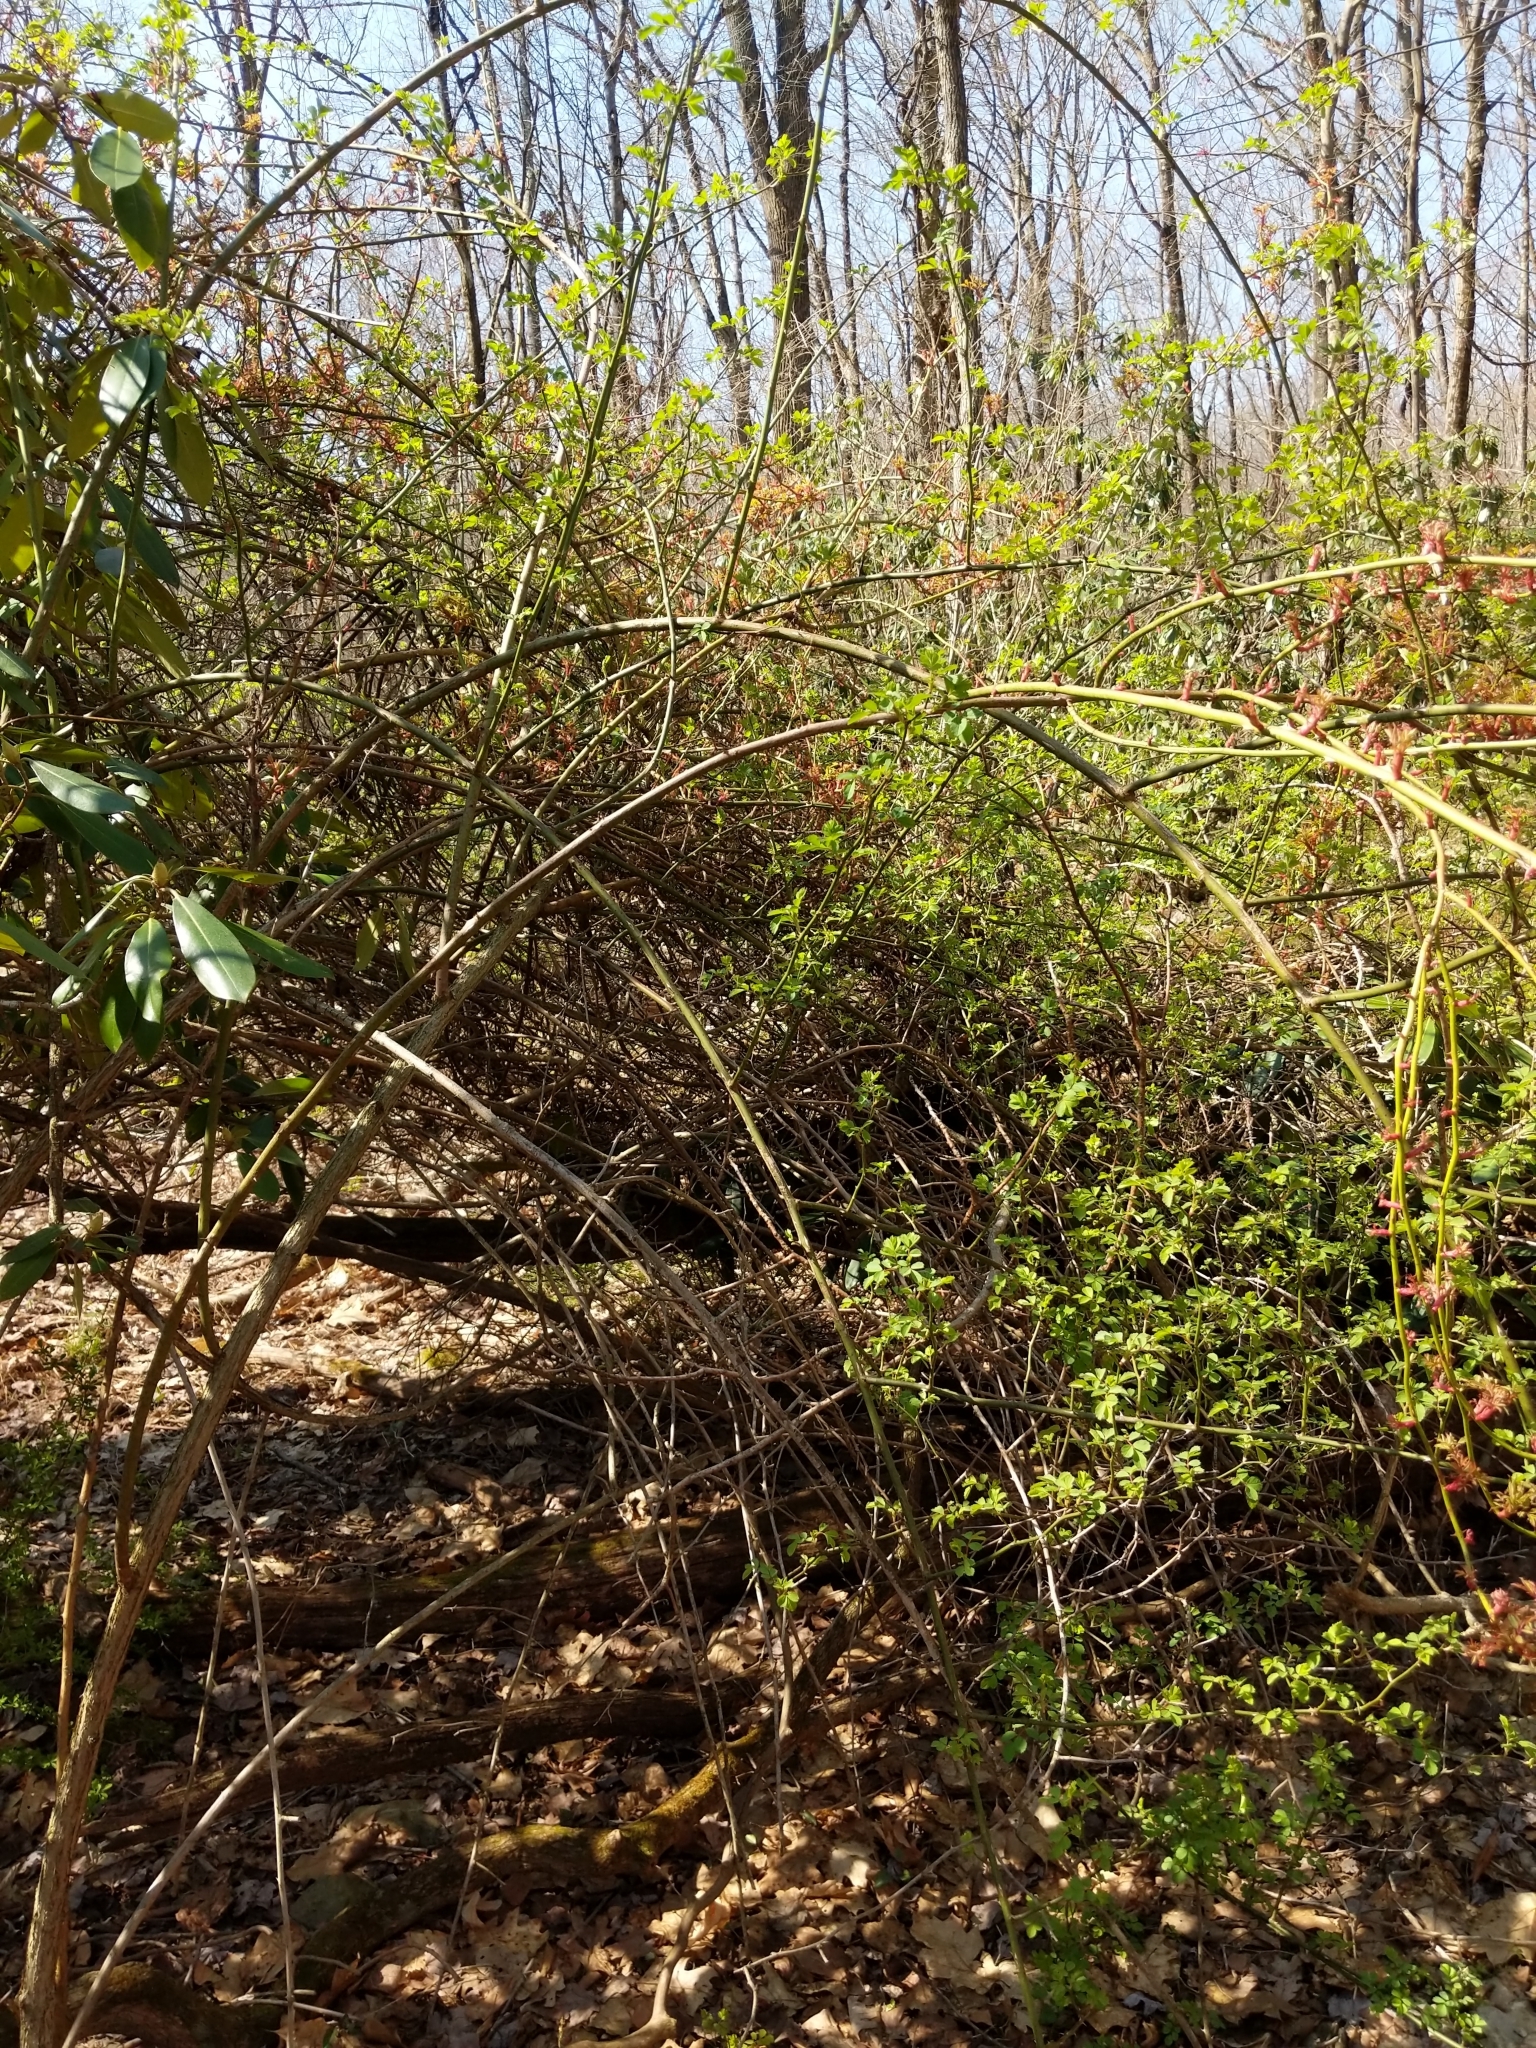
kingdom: Viruses
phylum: Negarnaviricota
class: Ellioviricetes
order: Bunyavirales
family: Fimoviridae
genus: Emaravirus
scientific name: Emaravirus rosae
